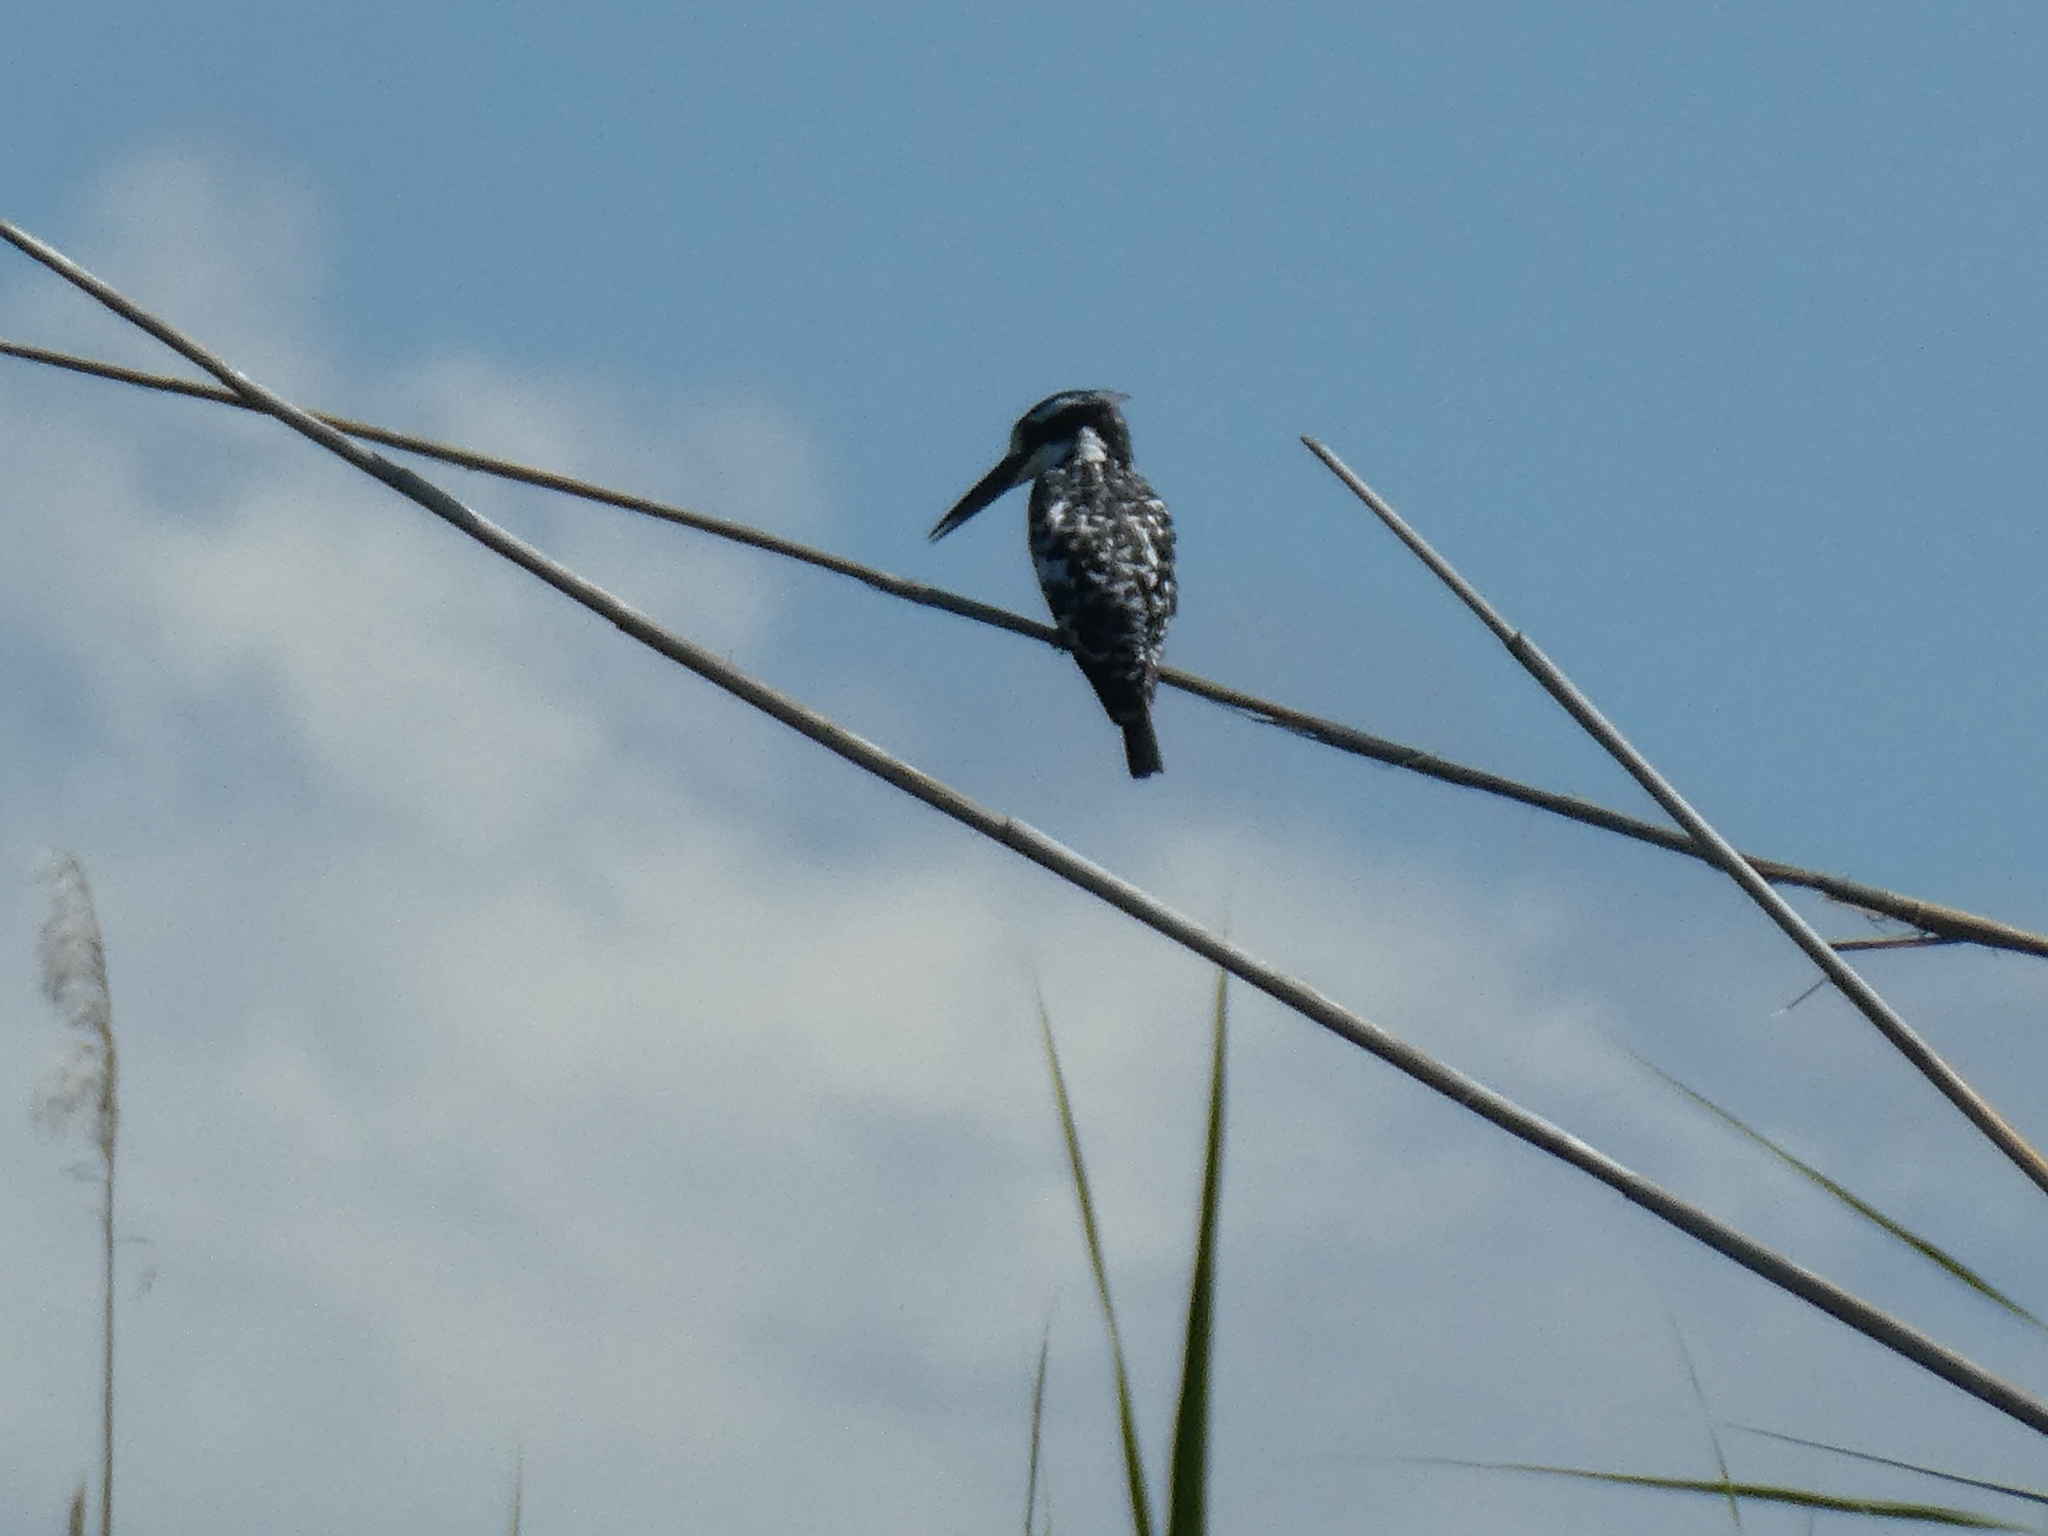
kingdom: Animalia
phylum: Chordata
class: Aves
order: Coraciiformes
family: Alcedinidae
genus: Ceryle
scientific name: Ceryle rudis
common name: Pied kingfisher
